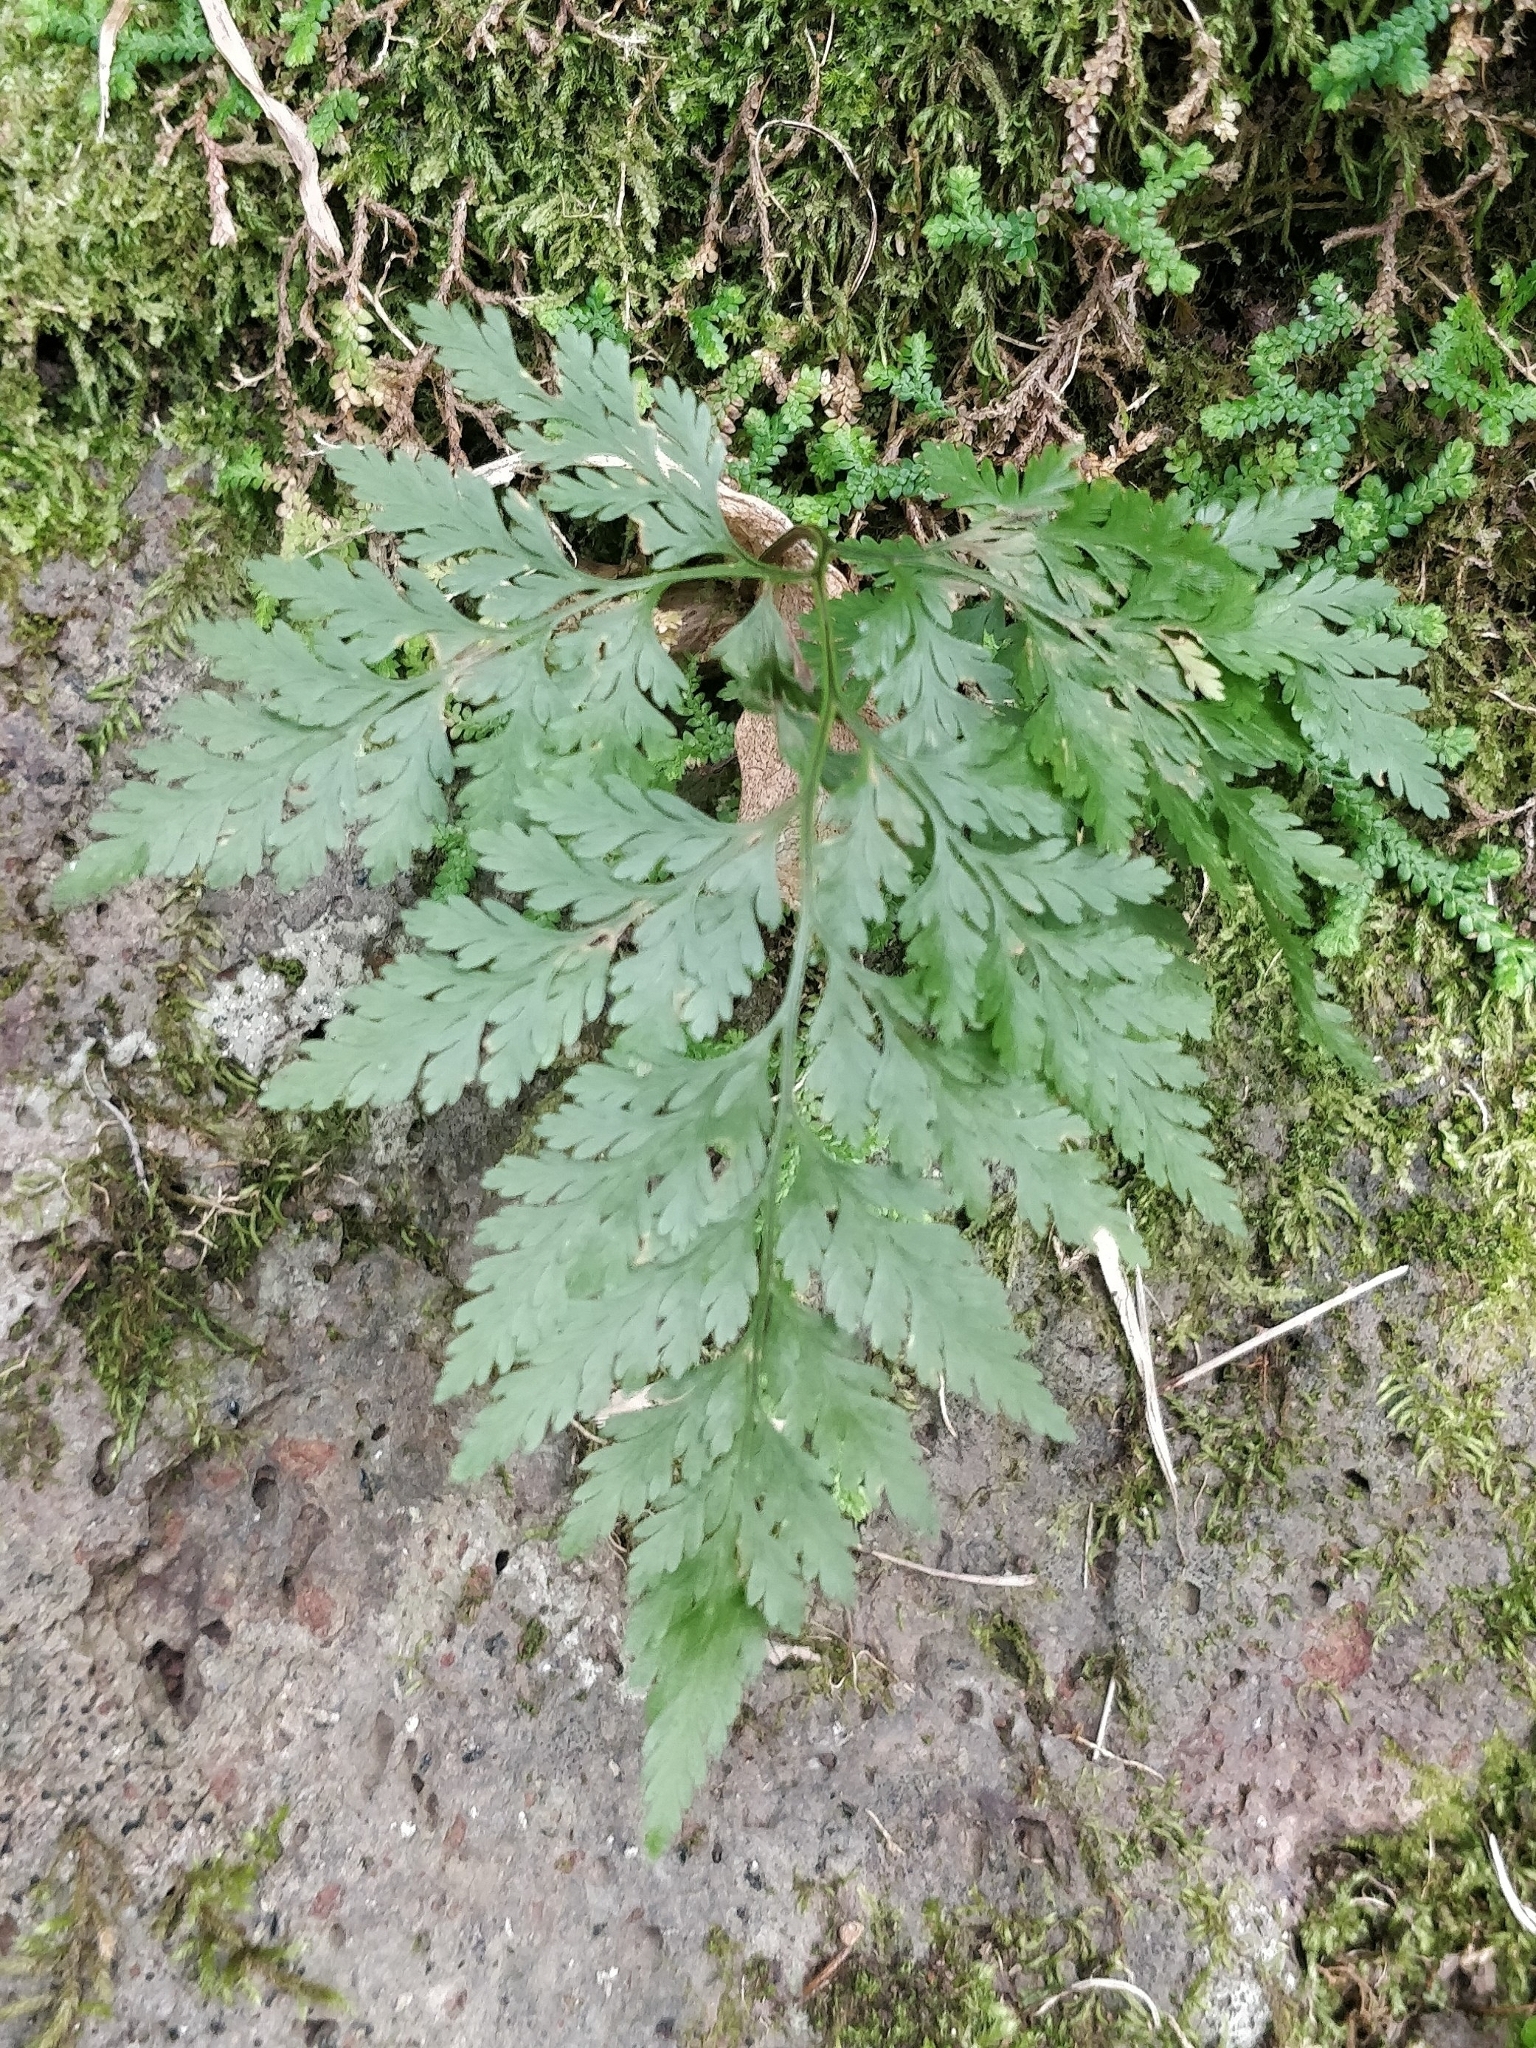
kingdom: Plantae
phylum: Tracheophyta
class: Polypodiopsida
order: Polypodiales
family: Davalliaceae
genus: Davallia
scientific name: Davallia canariensis
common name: Hare's-foot fern
